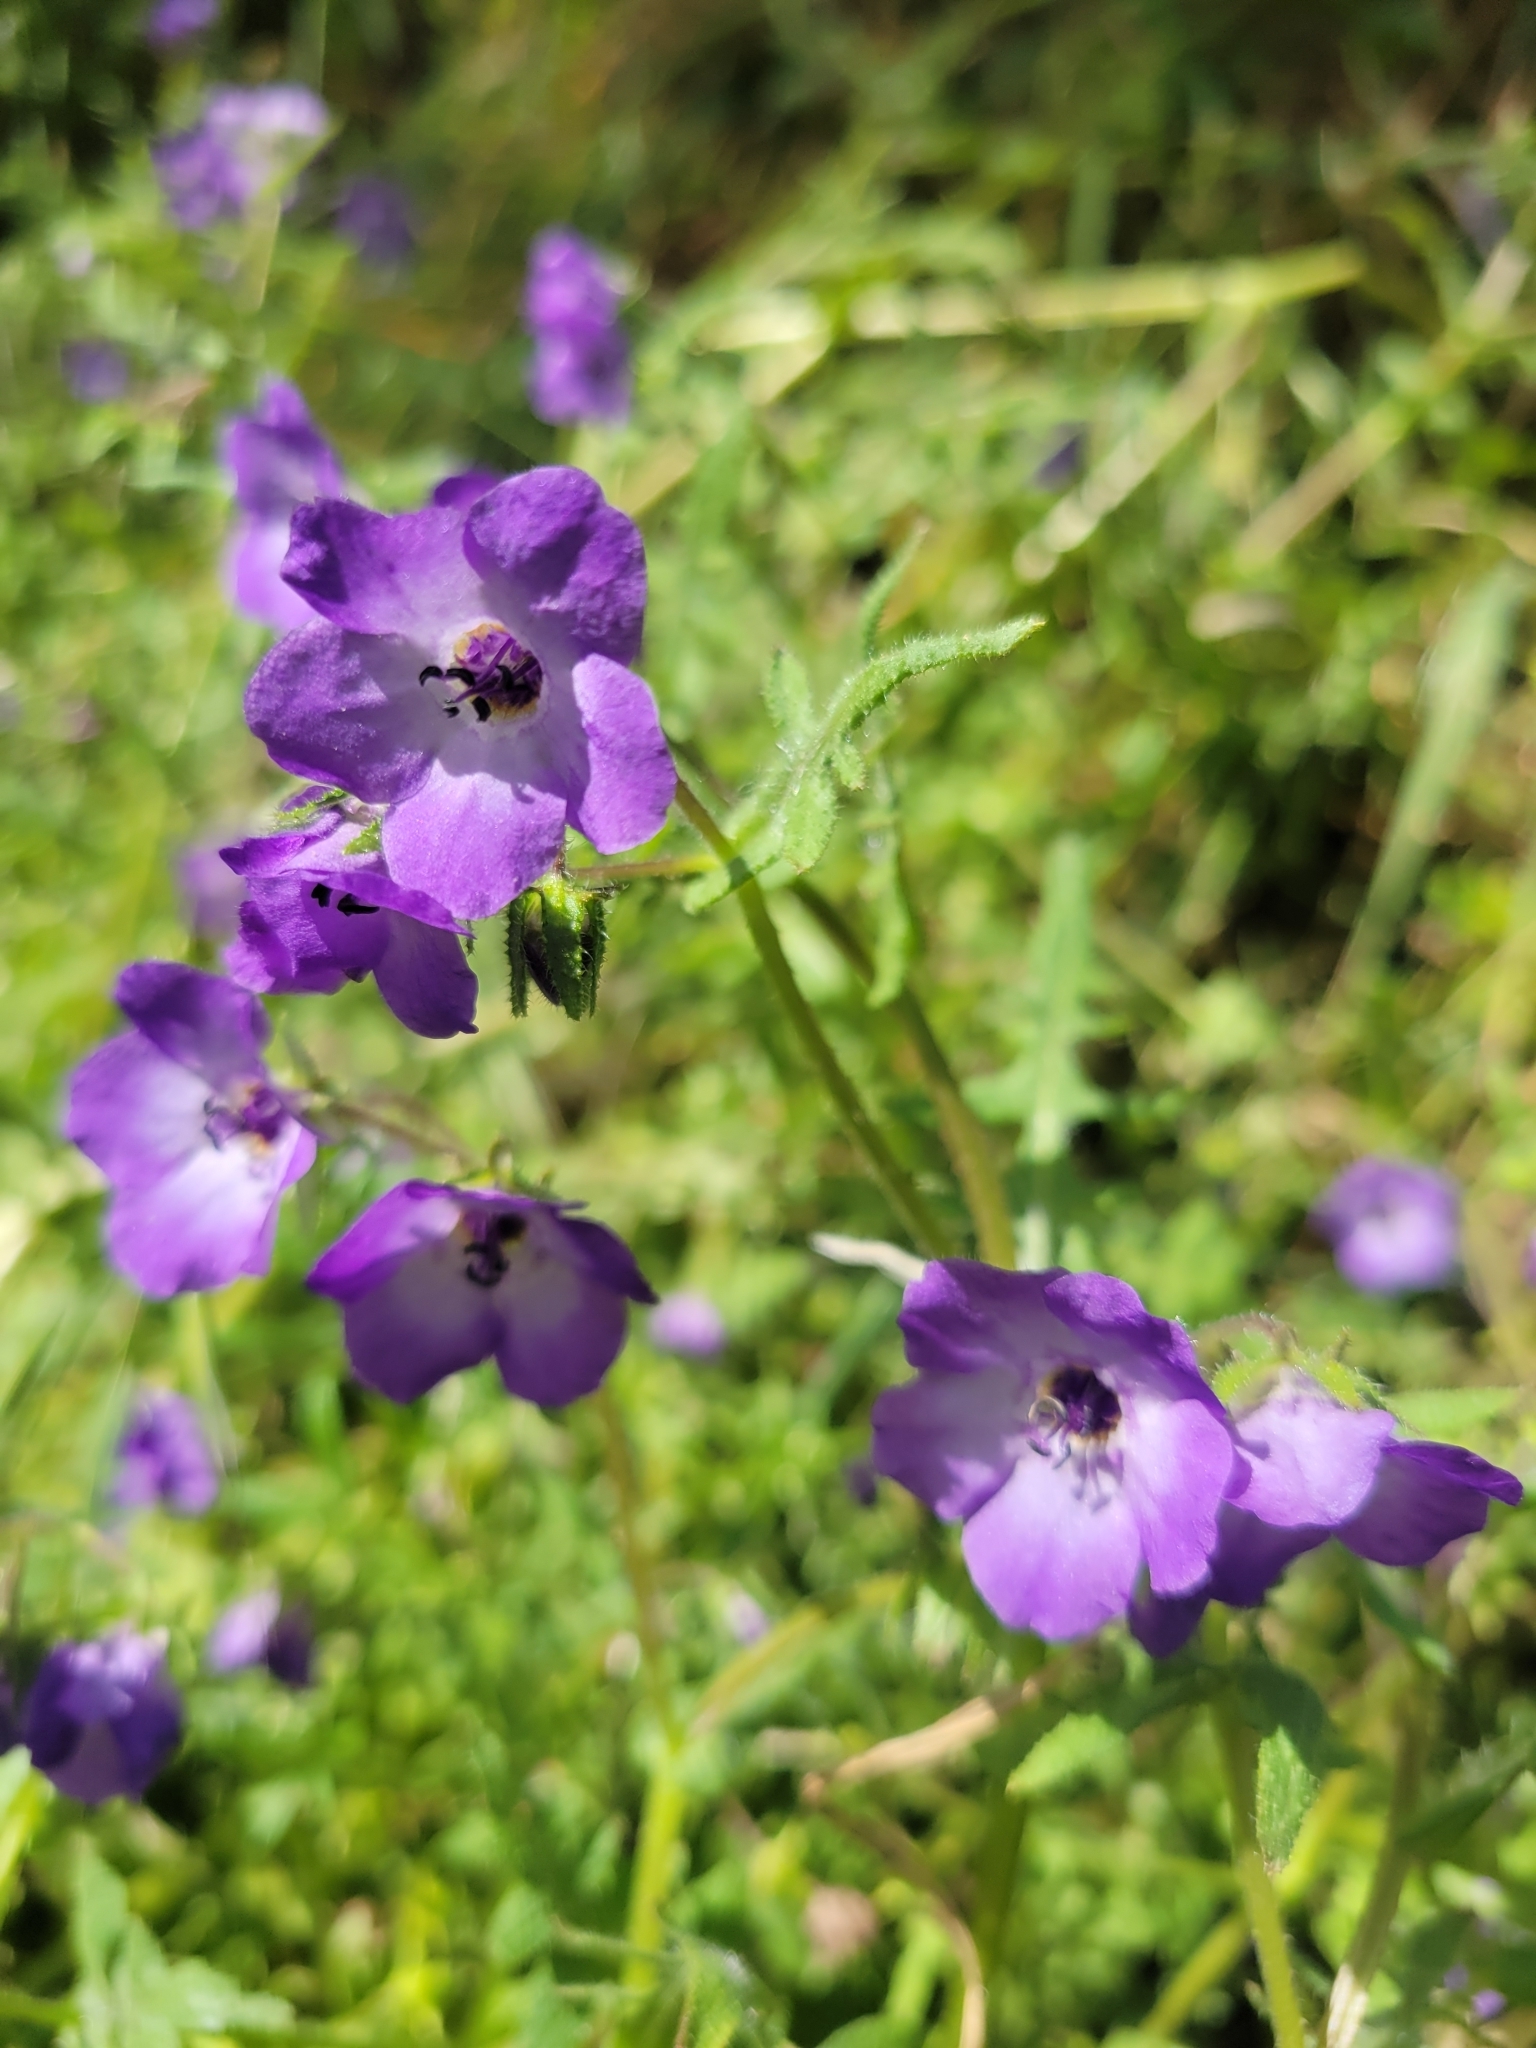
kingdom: Plantae
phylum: Tracheophyta
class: Magnoliopsida
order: Boraginales
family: Hydrophyllaceae
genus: Pholistoma
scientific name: Pholistoma auritum
